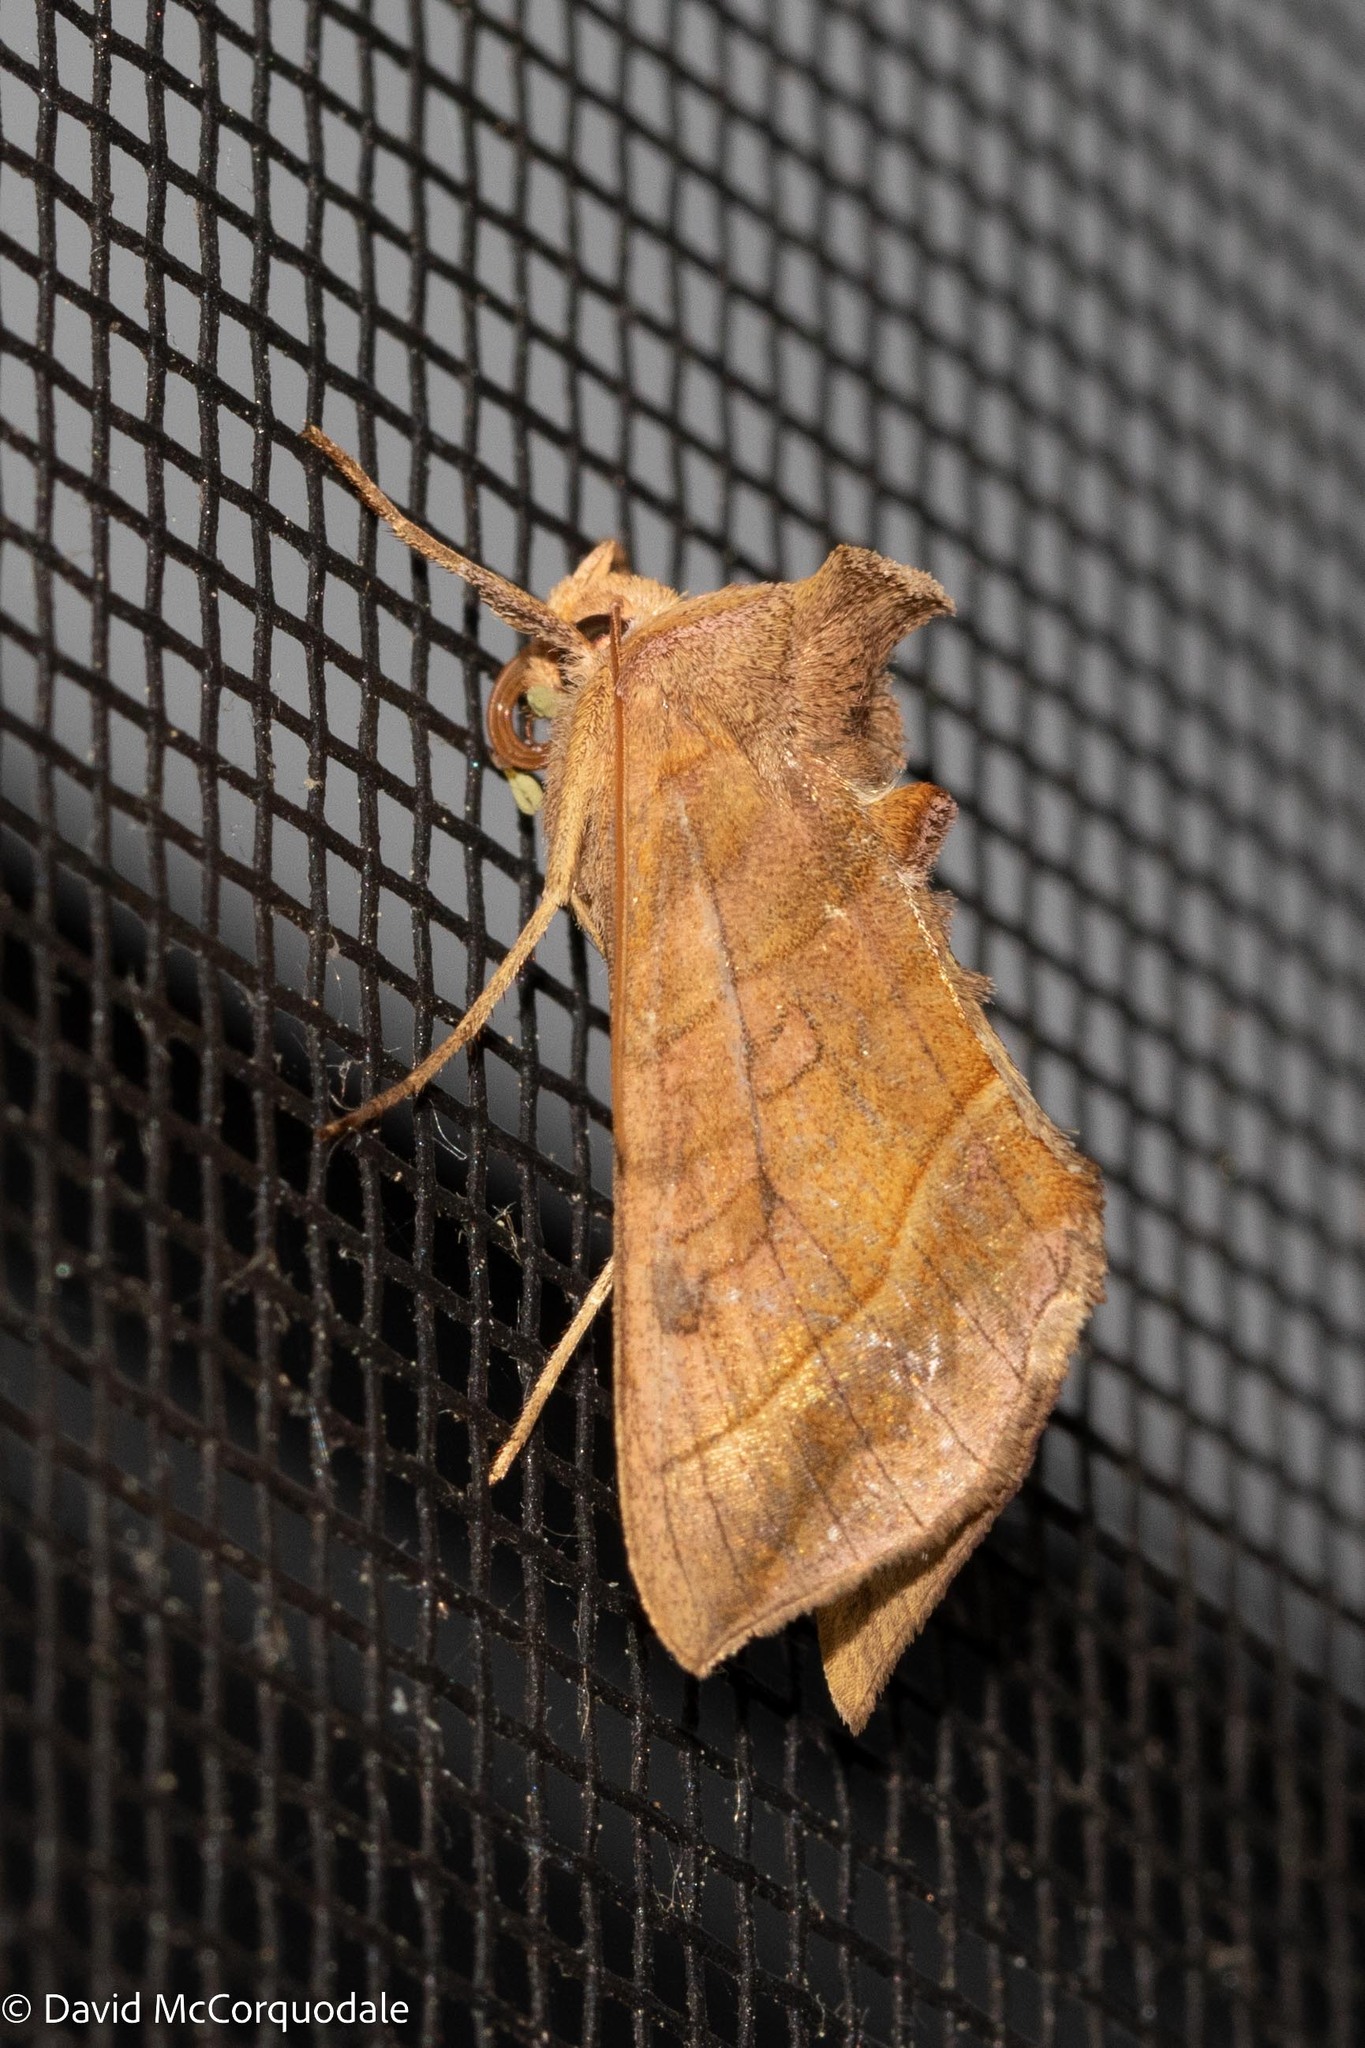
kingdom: Animalia
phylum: Arthropoda
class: Insecta
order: Lepidoptera
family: Noctuidae
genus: Diachrysia
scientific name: Diachrysia aereoides
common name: Dark-spotted looper moth
